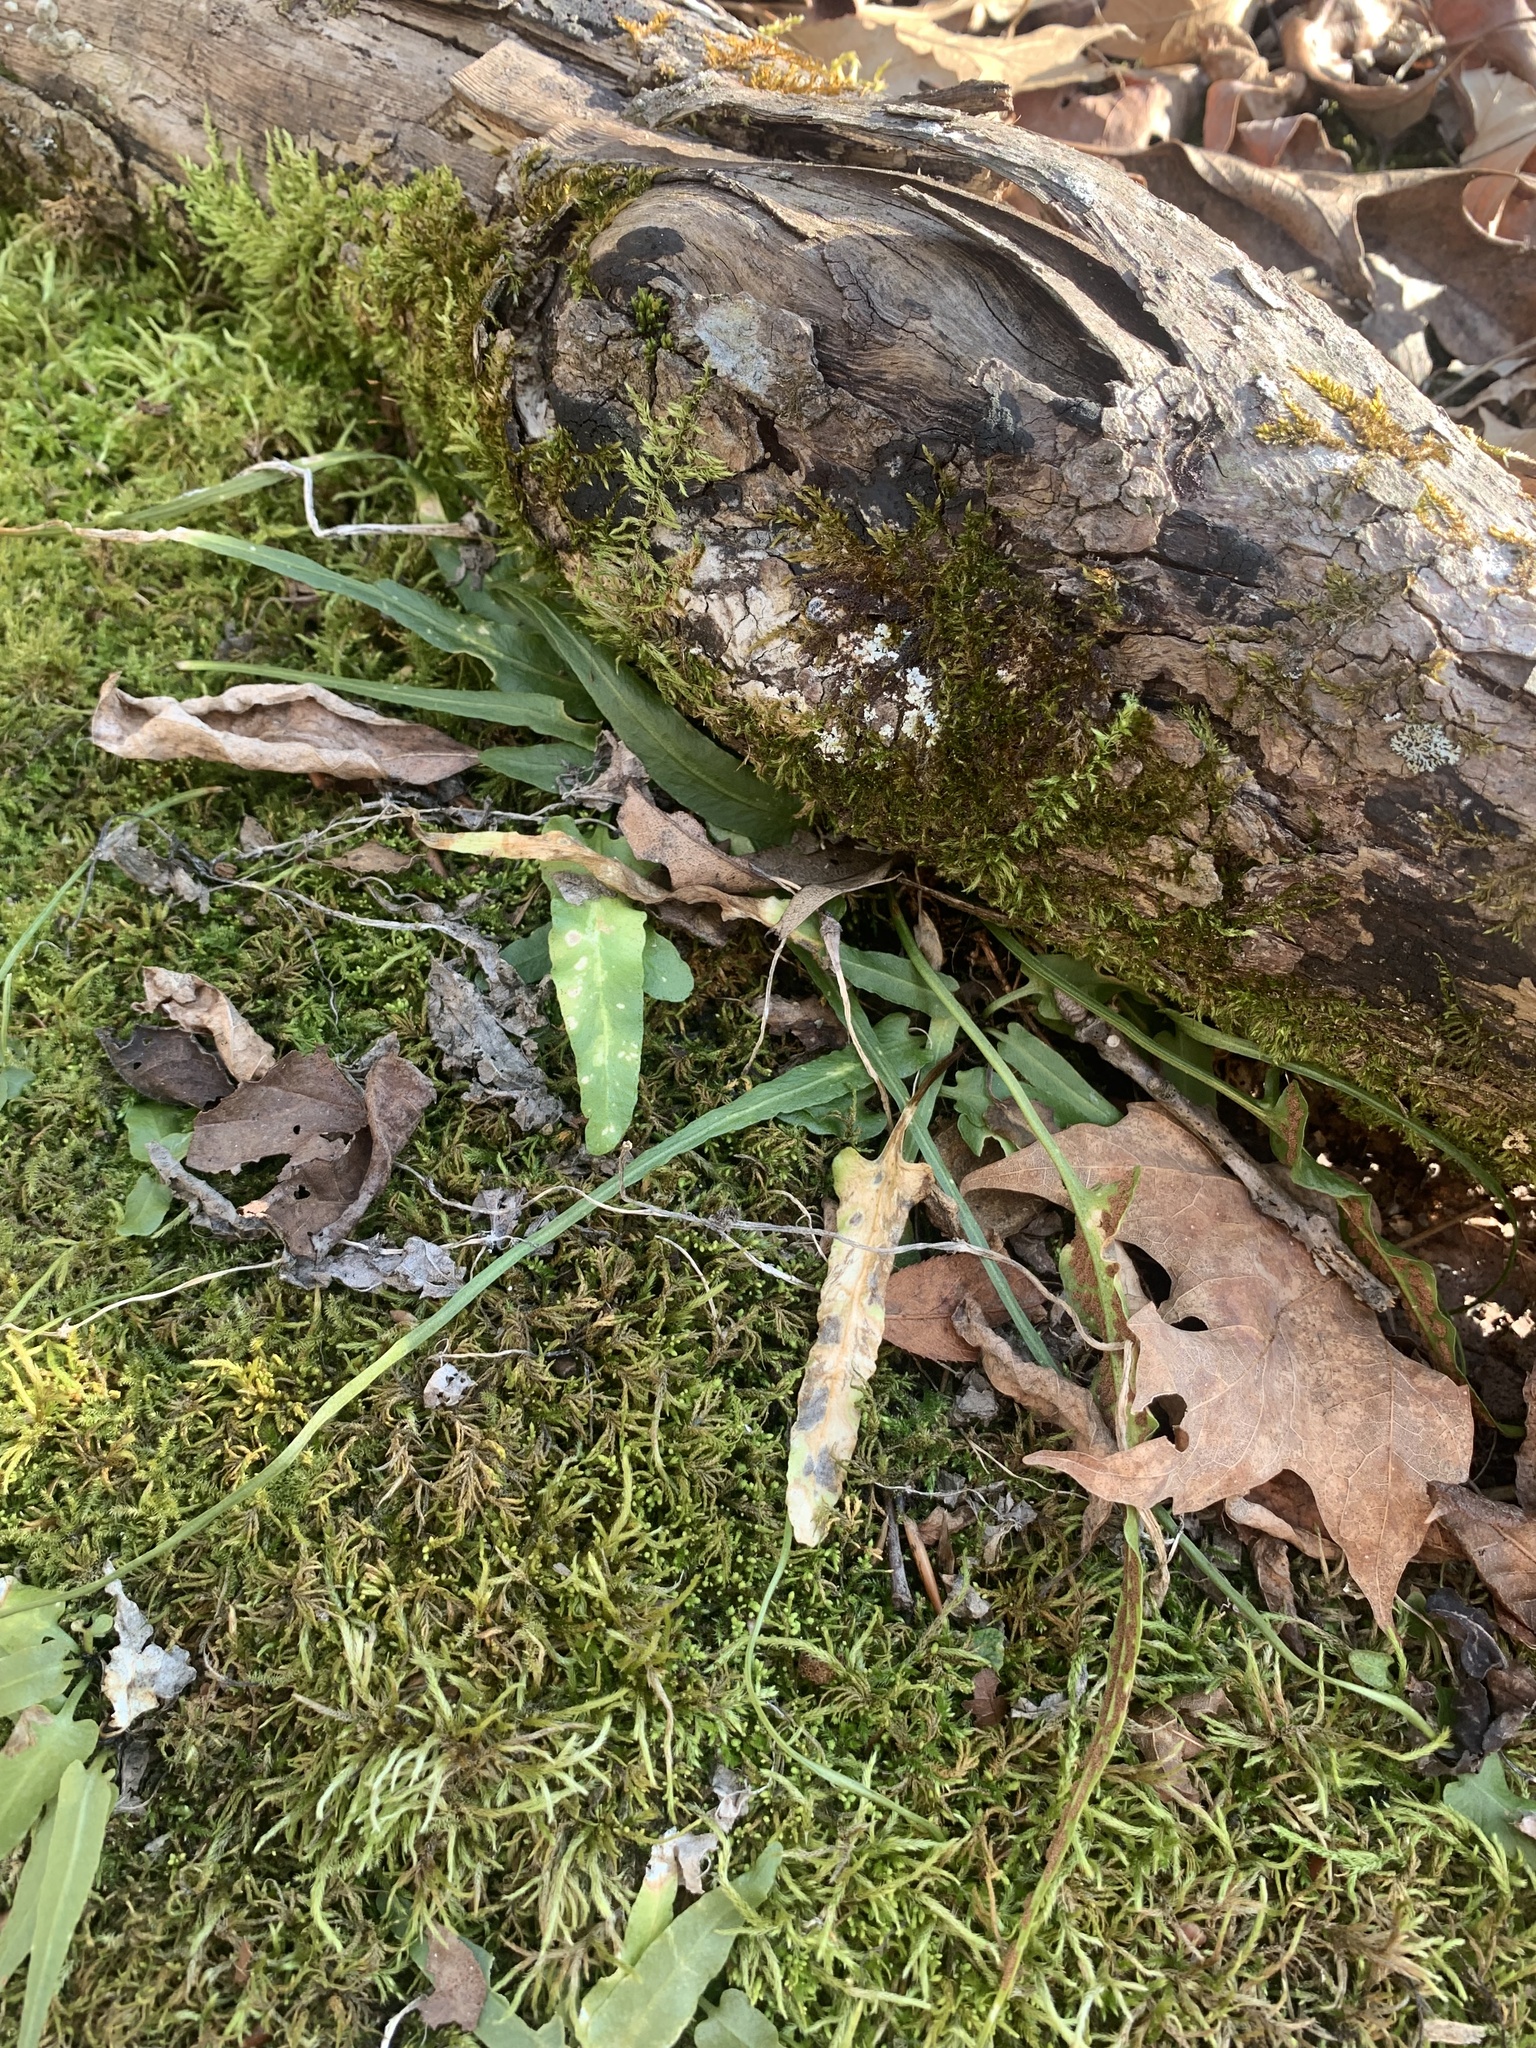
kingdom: Plantae
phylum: Tracheophyta
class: Polypodiopsida
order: Polypodiales
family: Aspleniaceae
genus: Asplenium
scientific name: Asplenium rhizophyllum
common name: Walking fern
